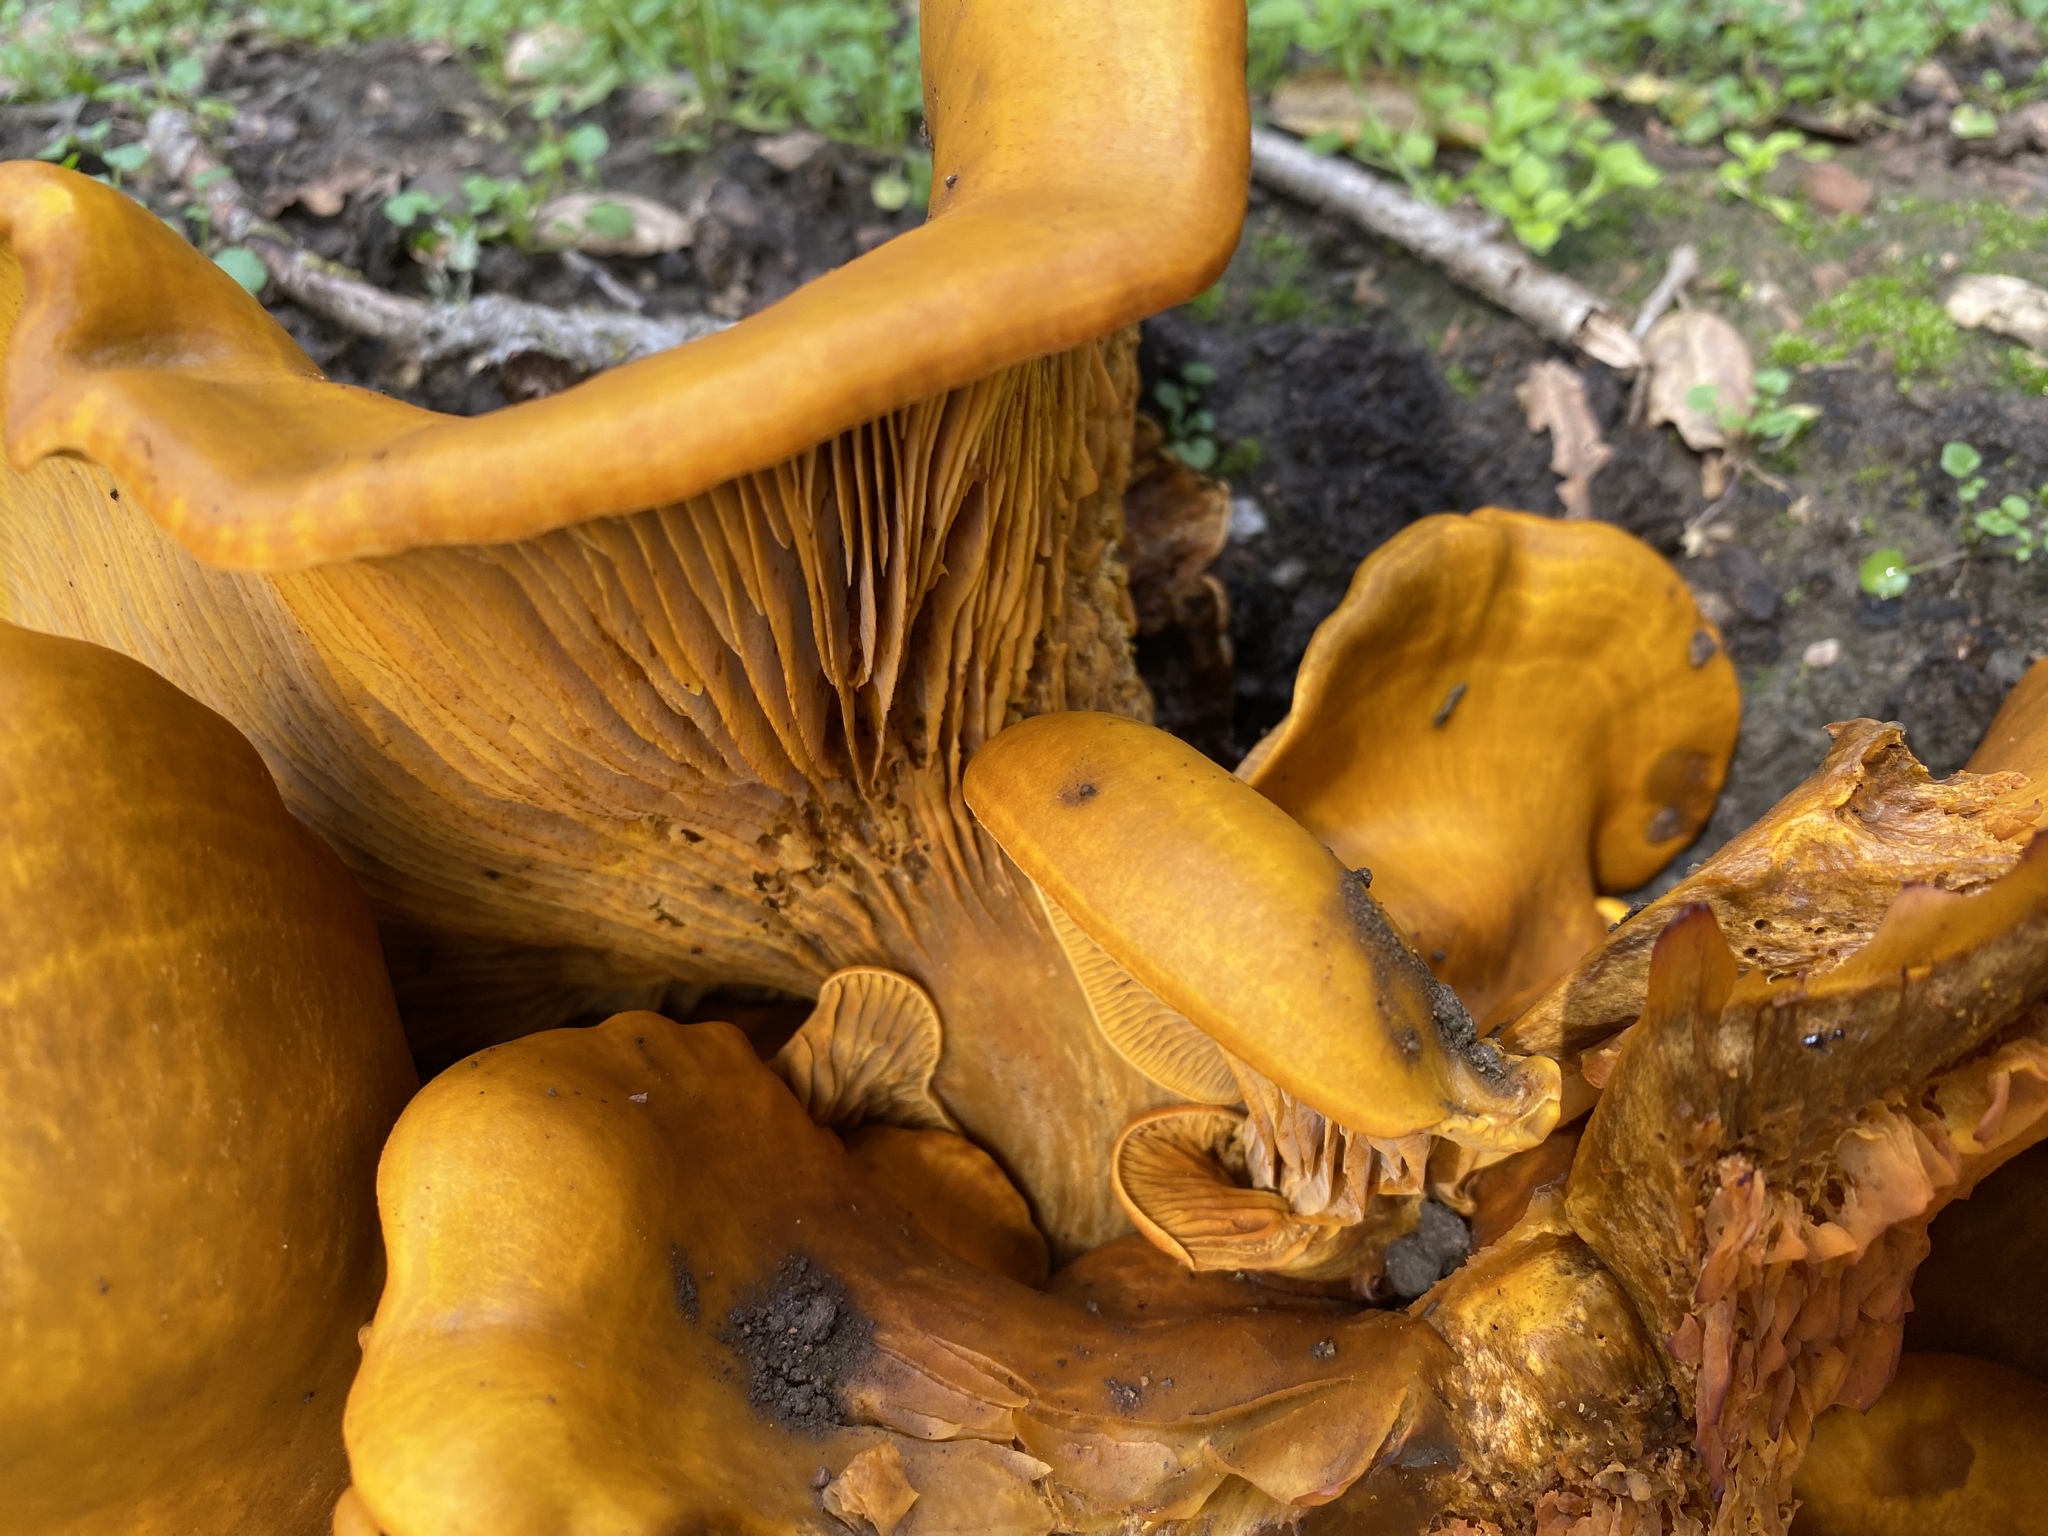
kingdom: Fungi
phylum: Basidiomycota
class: Agaricomycetes
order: Agaricales
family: Omphalotaceae
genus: Omphalotus
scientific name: Omphalotus olivascens
